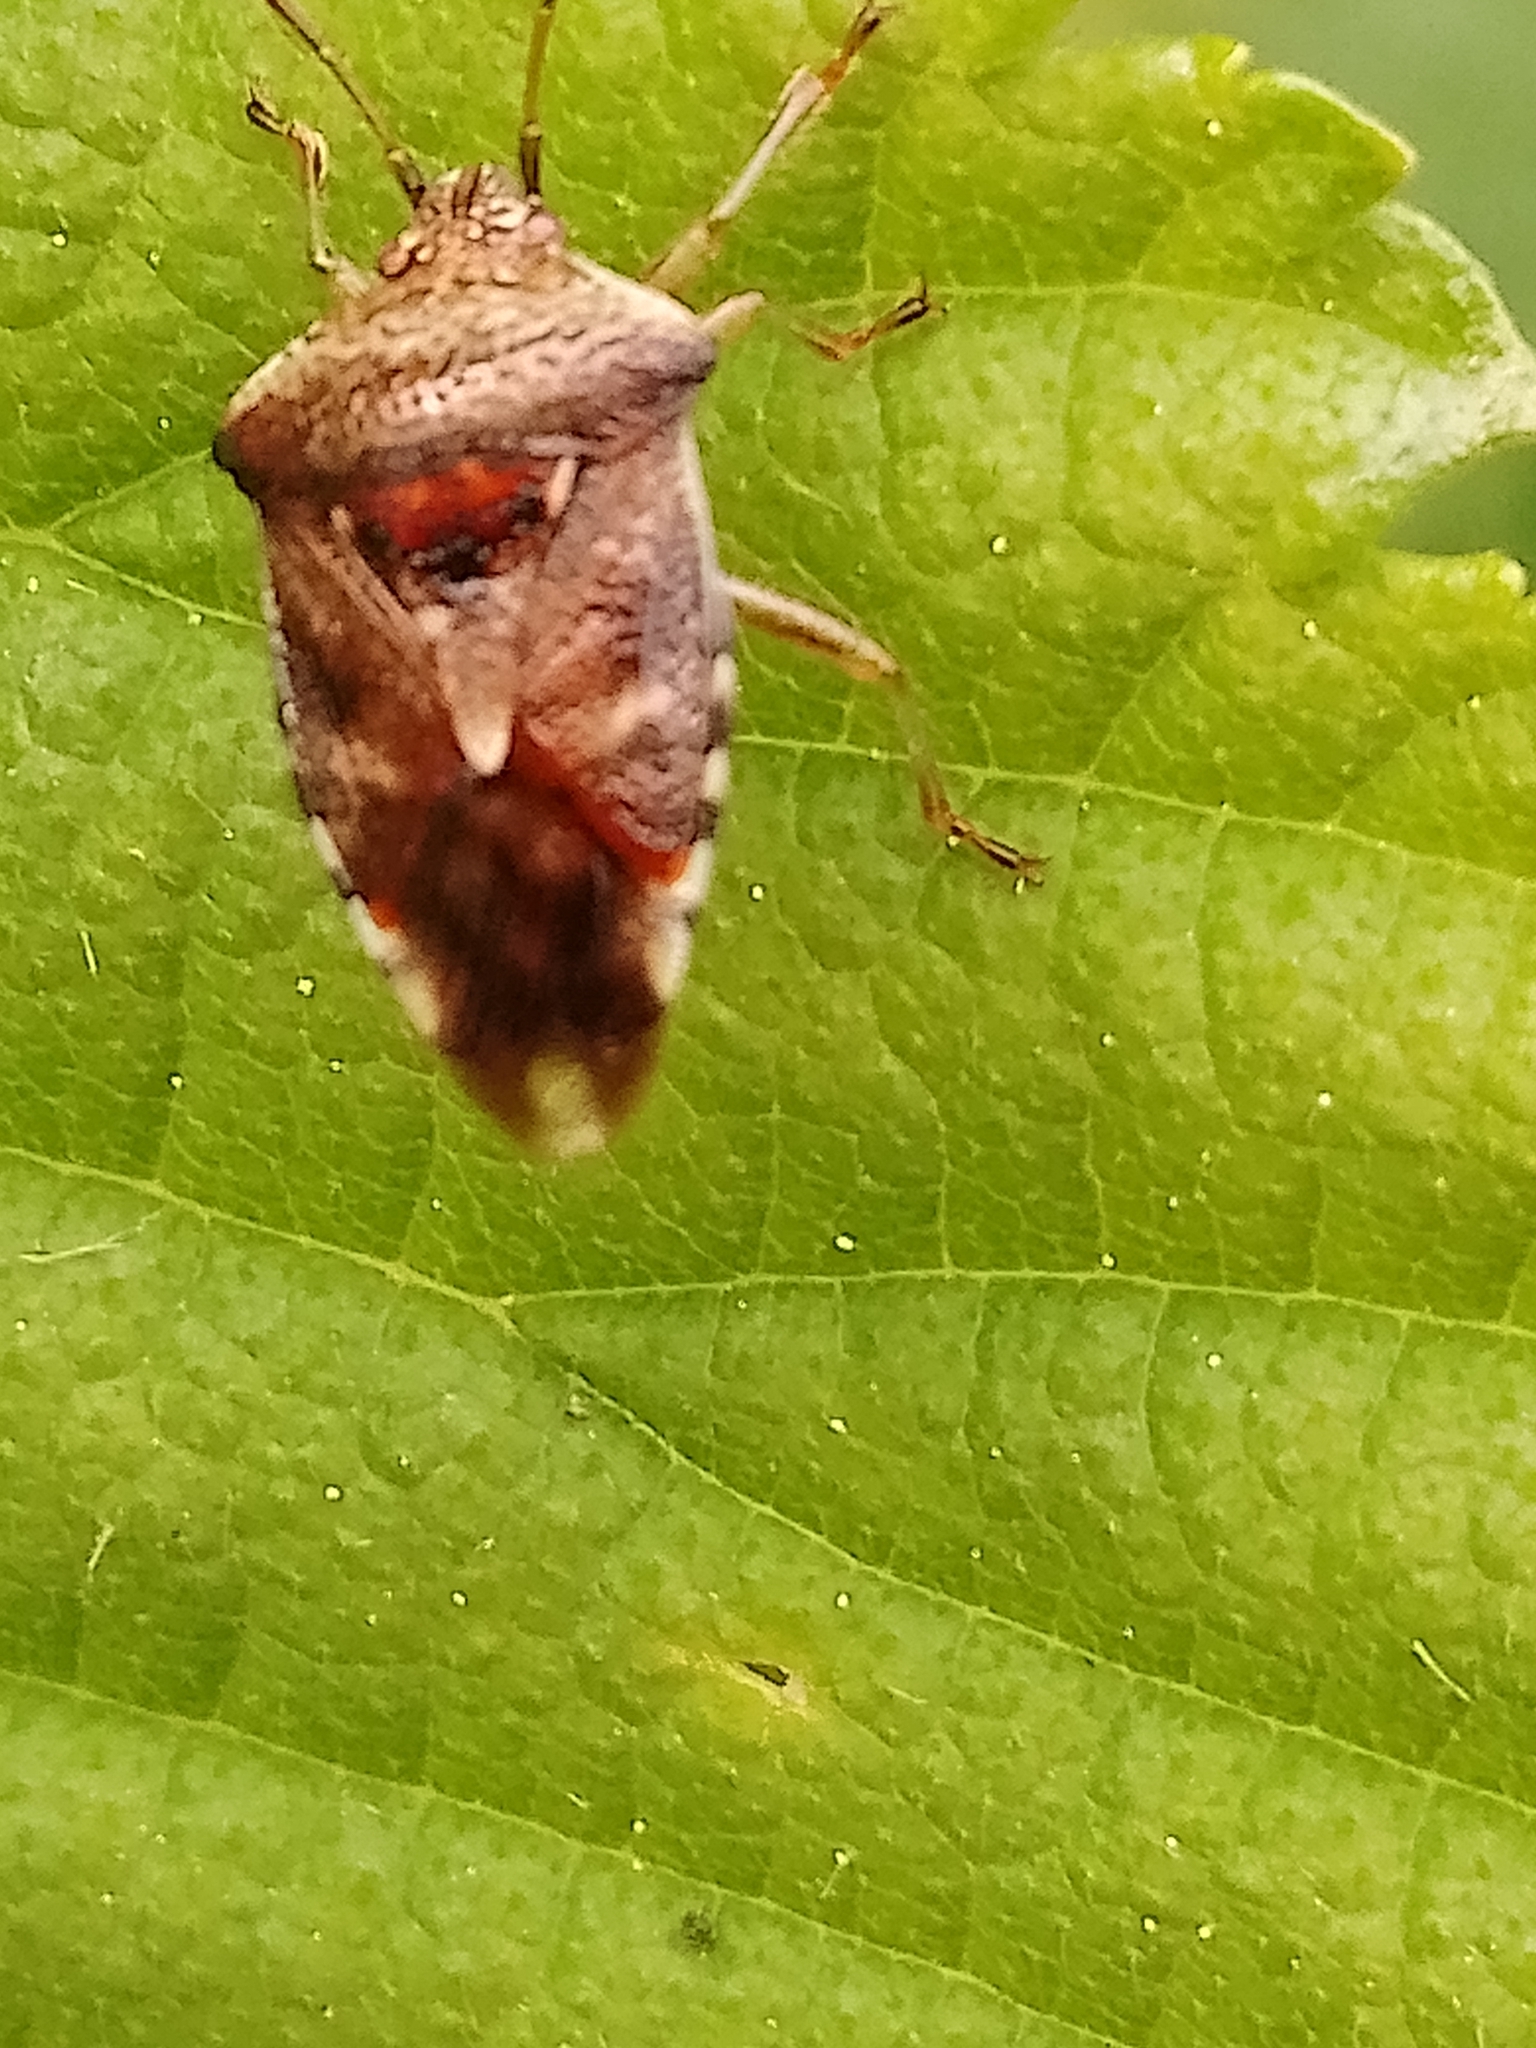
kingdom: Animalia
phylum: Arthropoda
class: Insecta
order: Hemiptera
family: Acanthosomatidae
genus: Elasmucha
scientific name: Elasmucha grisea
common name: Parent bug
